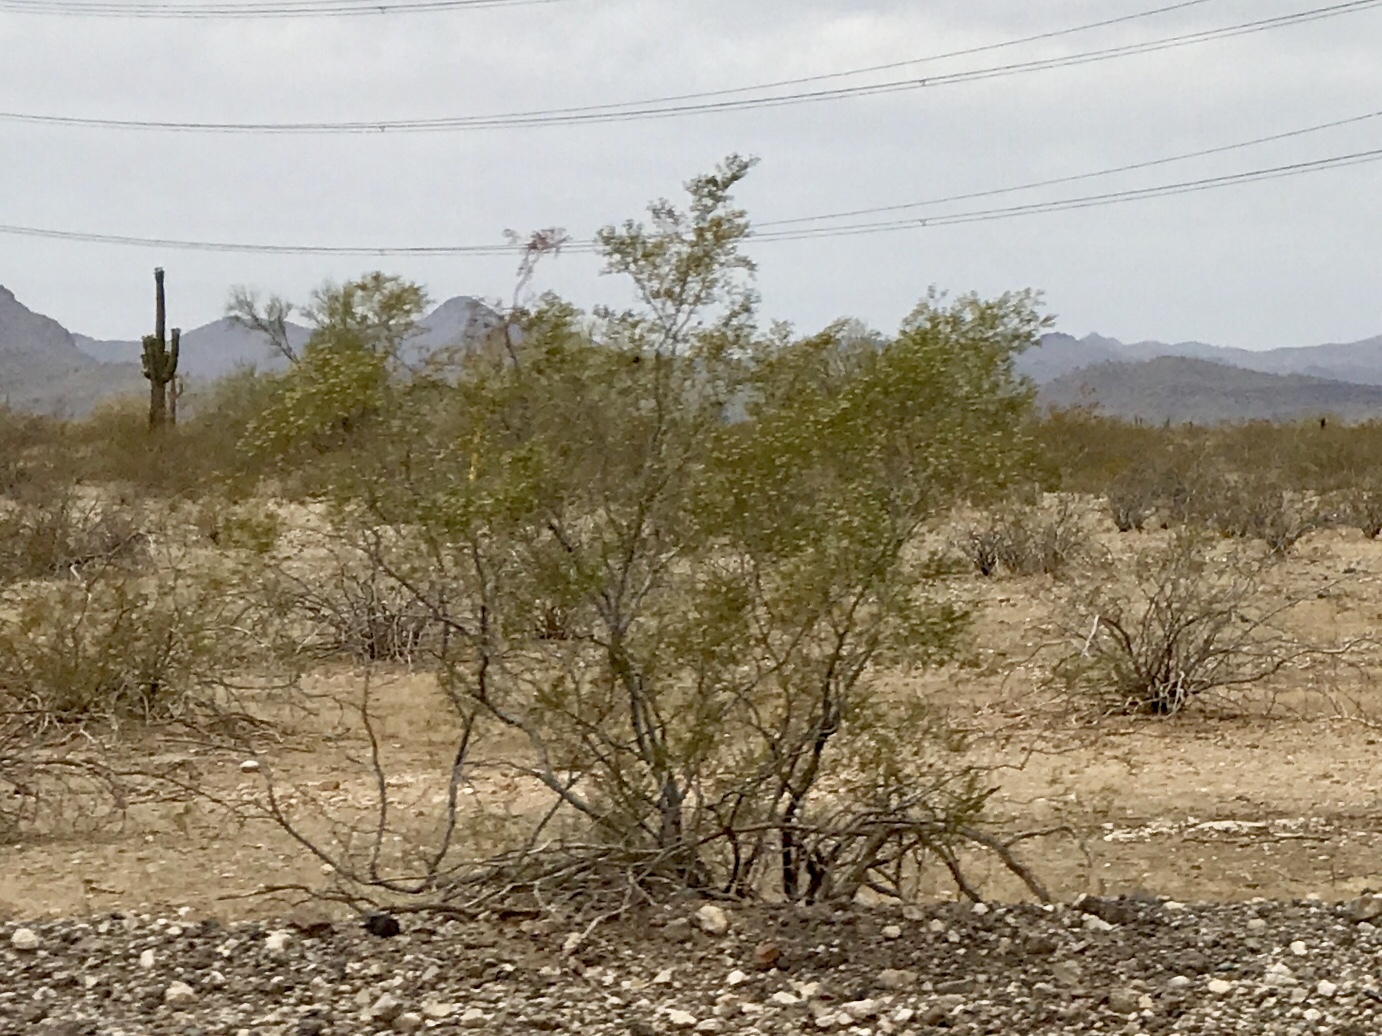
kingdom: Plantae
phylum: Tracheophyta
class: Magnoliopsida
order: Zygophyllales
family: Zygophyllaceae
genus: Larrea
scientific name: Larrea tridentata
